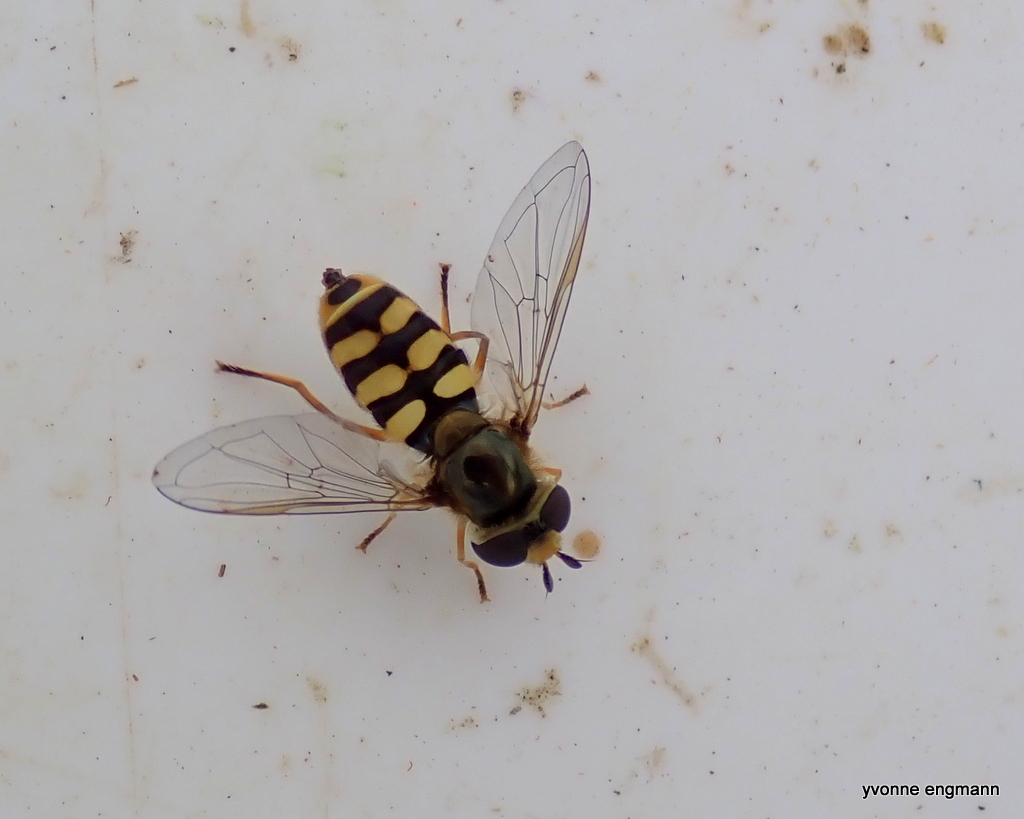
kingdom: Animalia
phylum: Arthropoda
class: Insecta
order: Diptera
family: Syrphidae
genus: Eupeodes
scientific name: Eupeodes corollae
